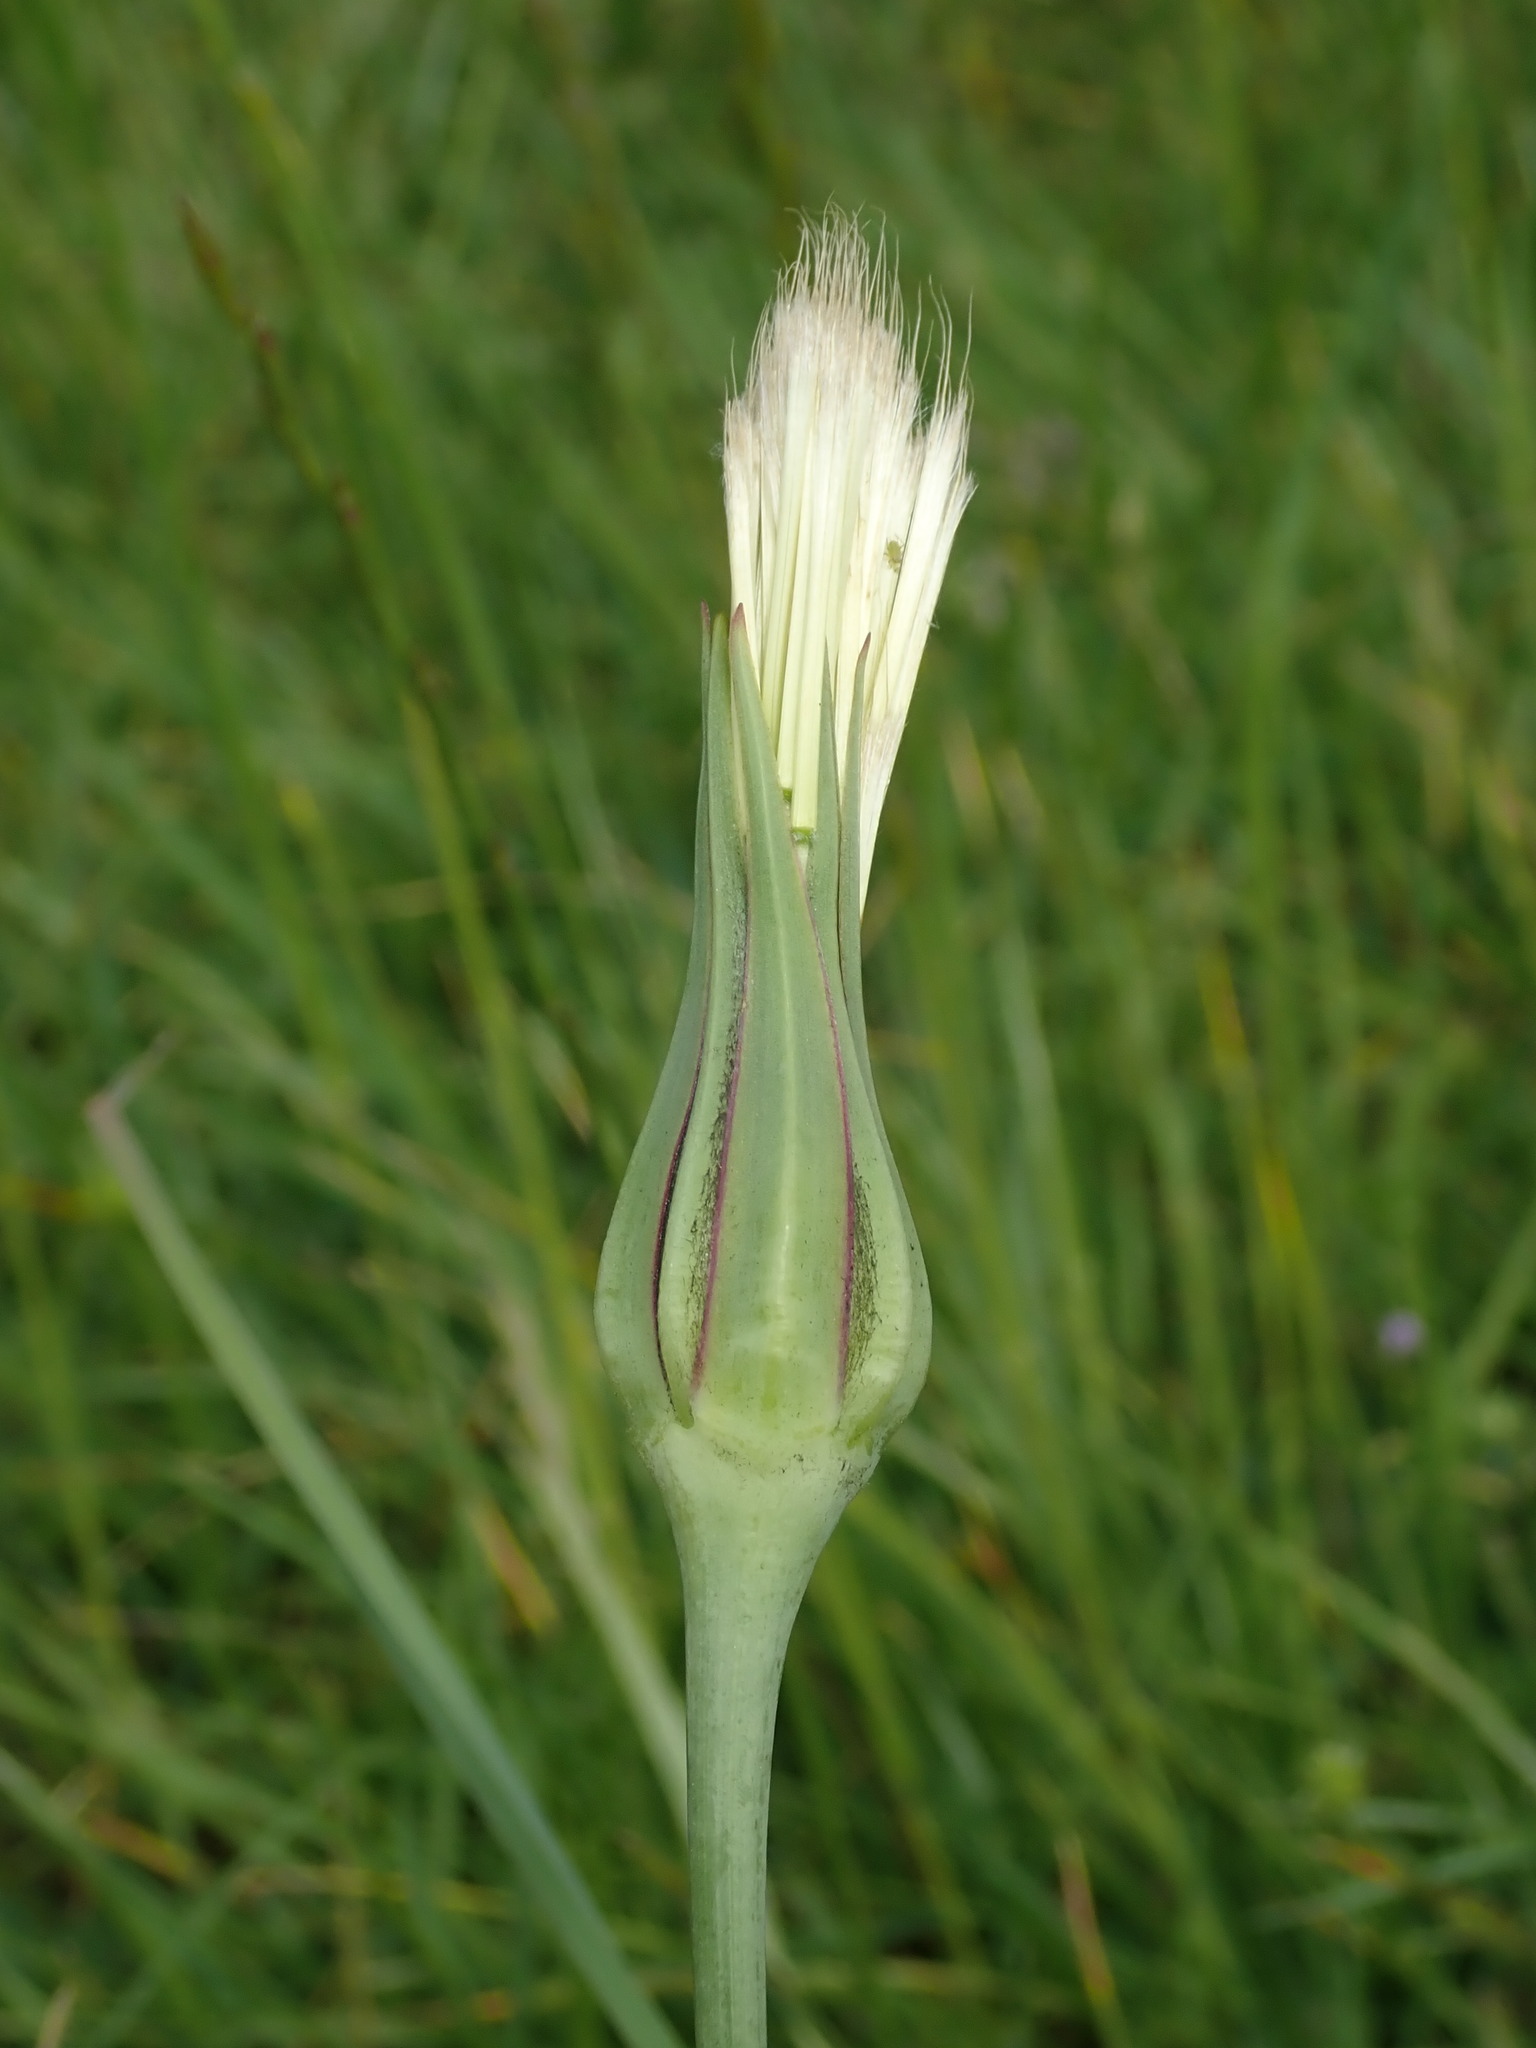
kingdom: Plantae
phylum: Tracheophyta
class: Magnoliopsida
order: Asterales
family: Asteraceae
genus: Tragopogon
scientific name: Tragopogon pratensis
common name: Goat's-beard
